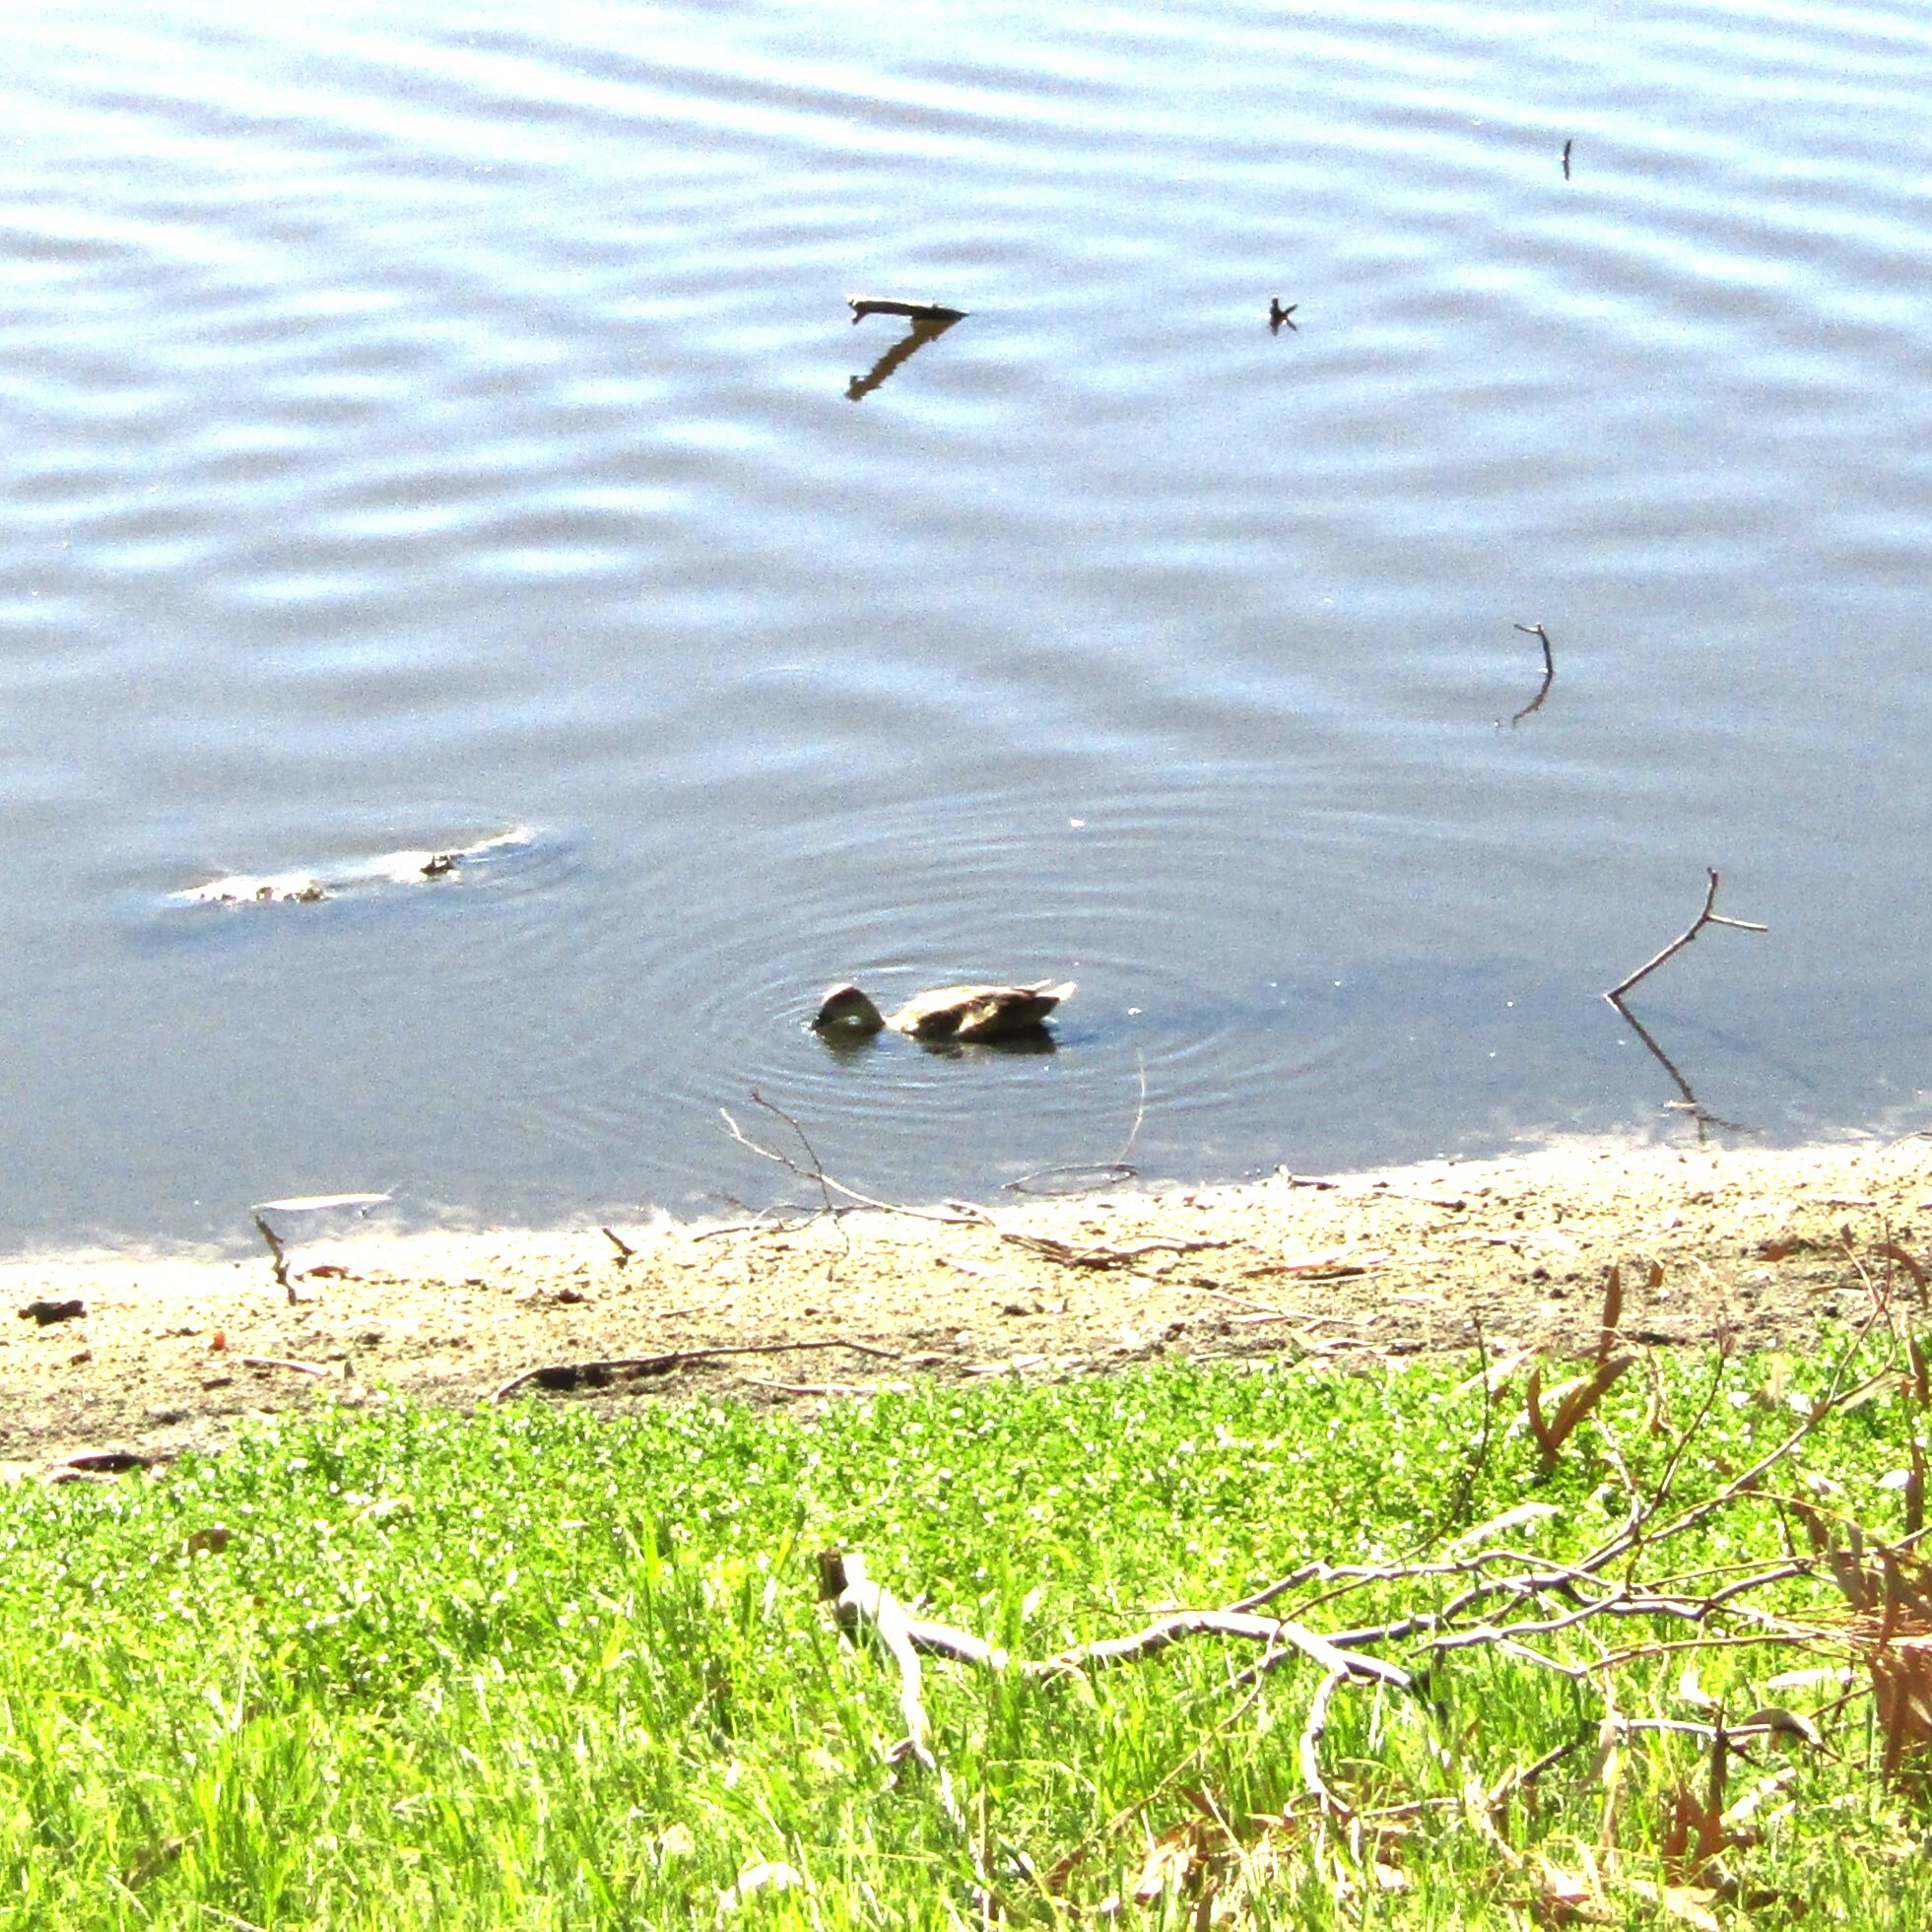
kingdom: Animalia
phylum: Chordata
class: Aves
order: Anseriformes
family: Anatidae
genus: Anas
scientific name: Anas gracilis
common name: Grey teal
